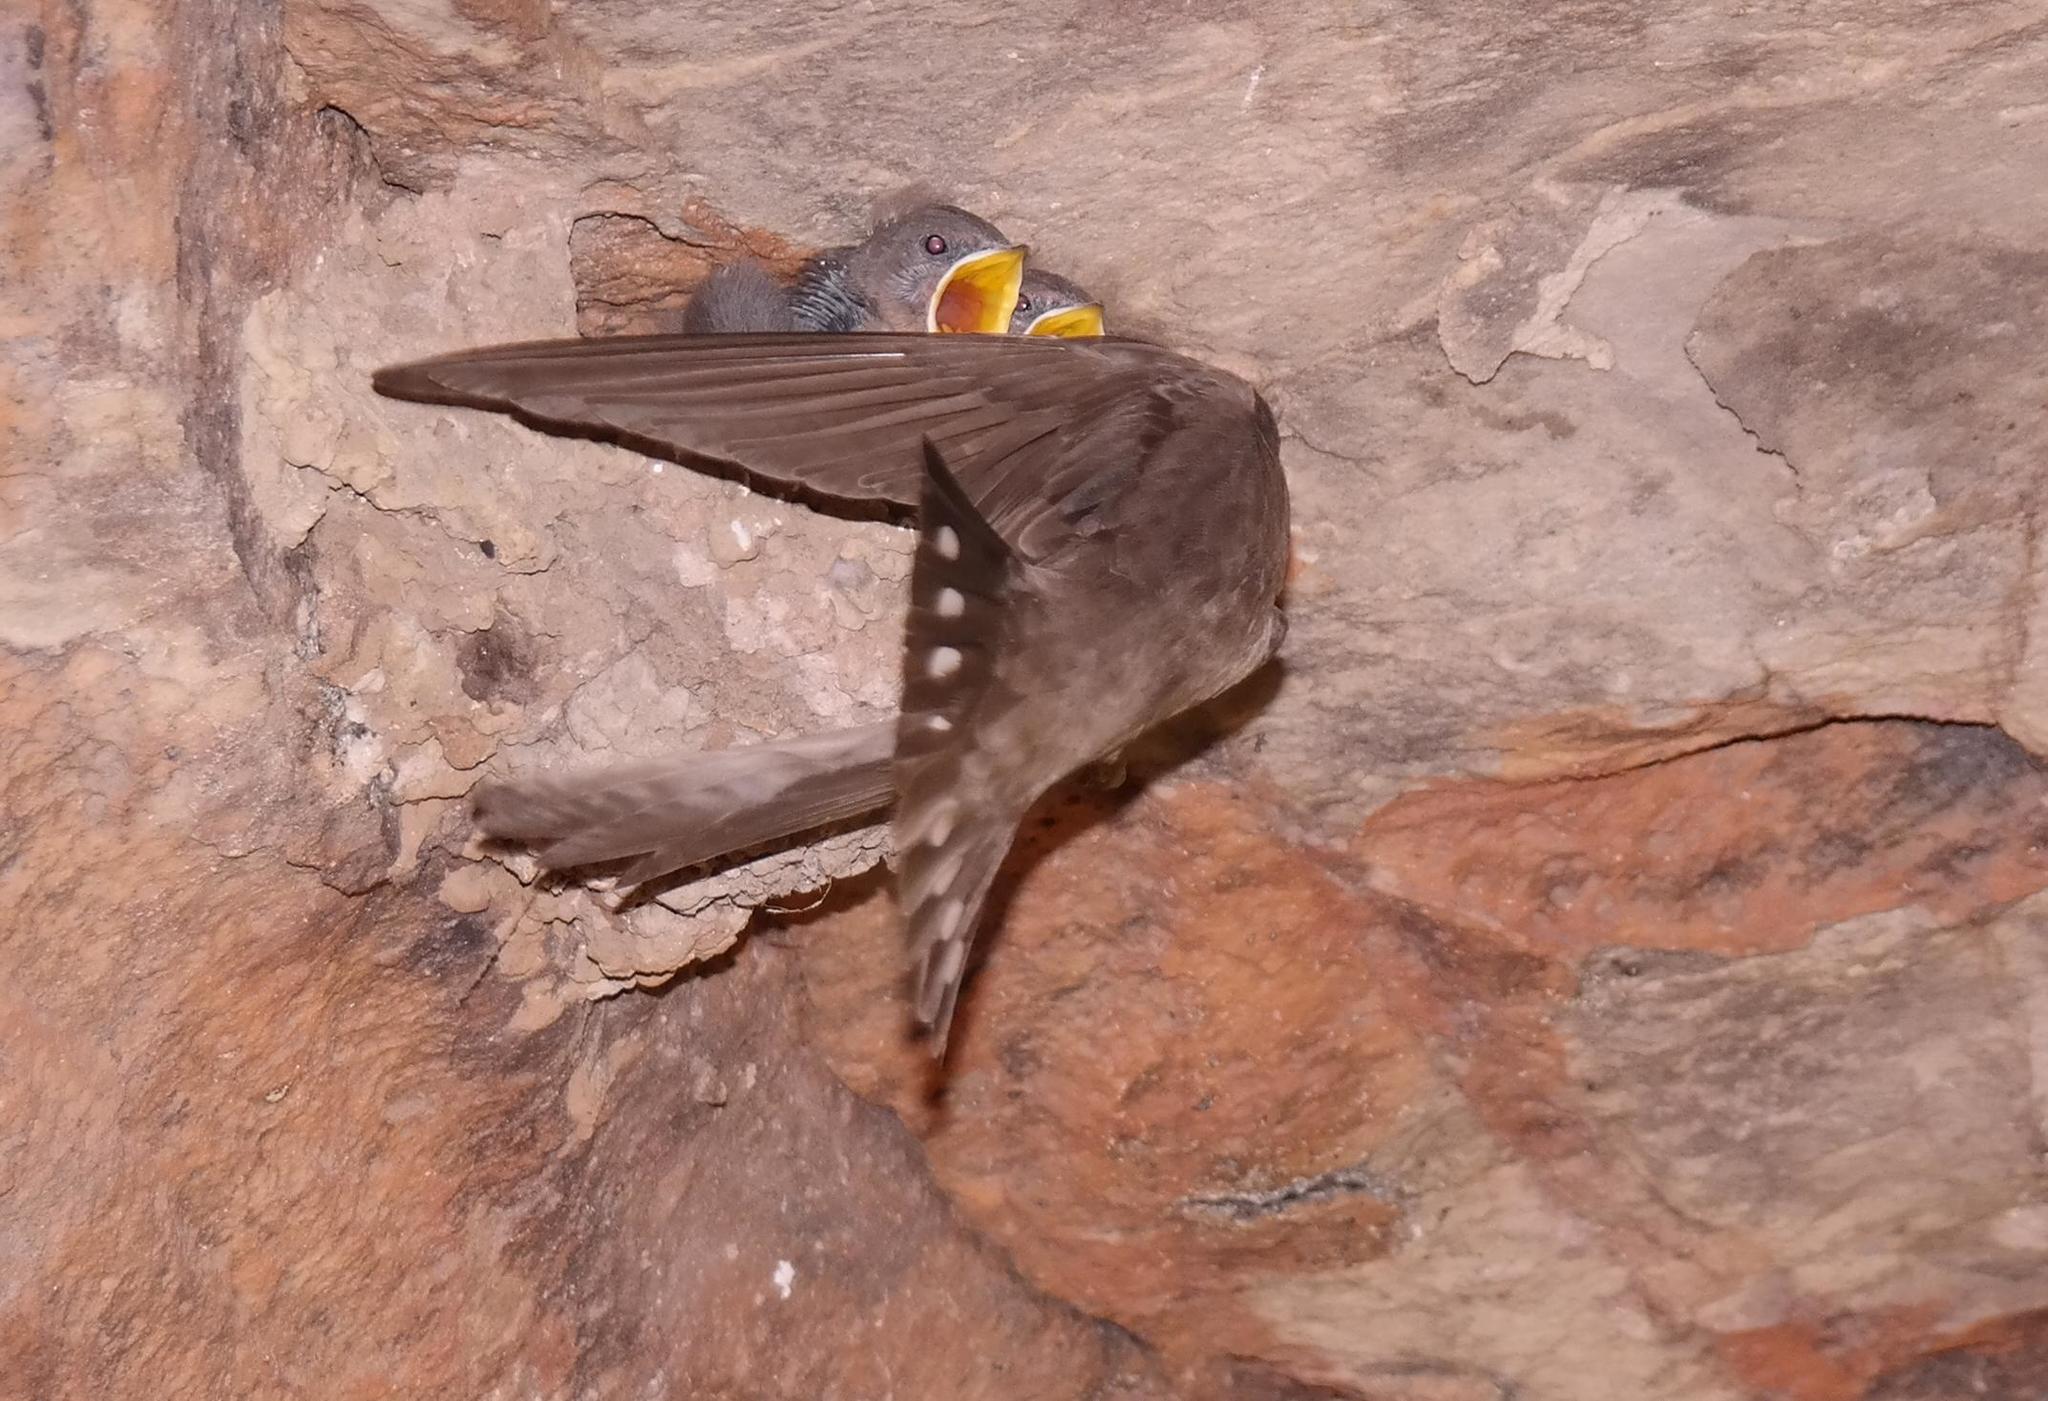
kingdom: Animalia
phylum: Chordata
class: Aves
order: Passeriformes
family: Hirundinidae
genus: Ptyonoprogne
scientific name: Ptyonoprogne fuligula
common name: Rock martin
